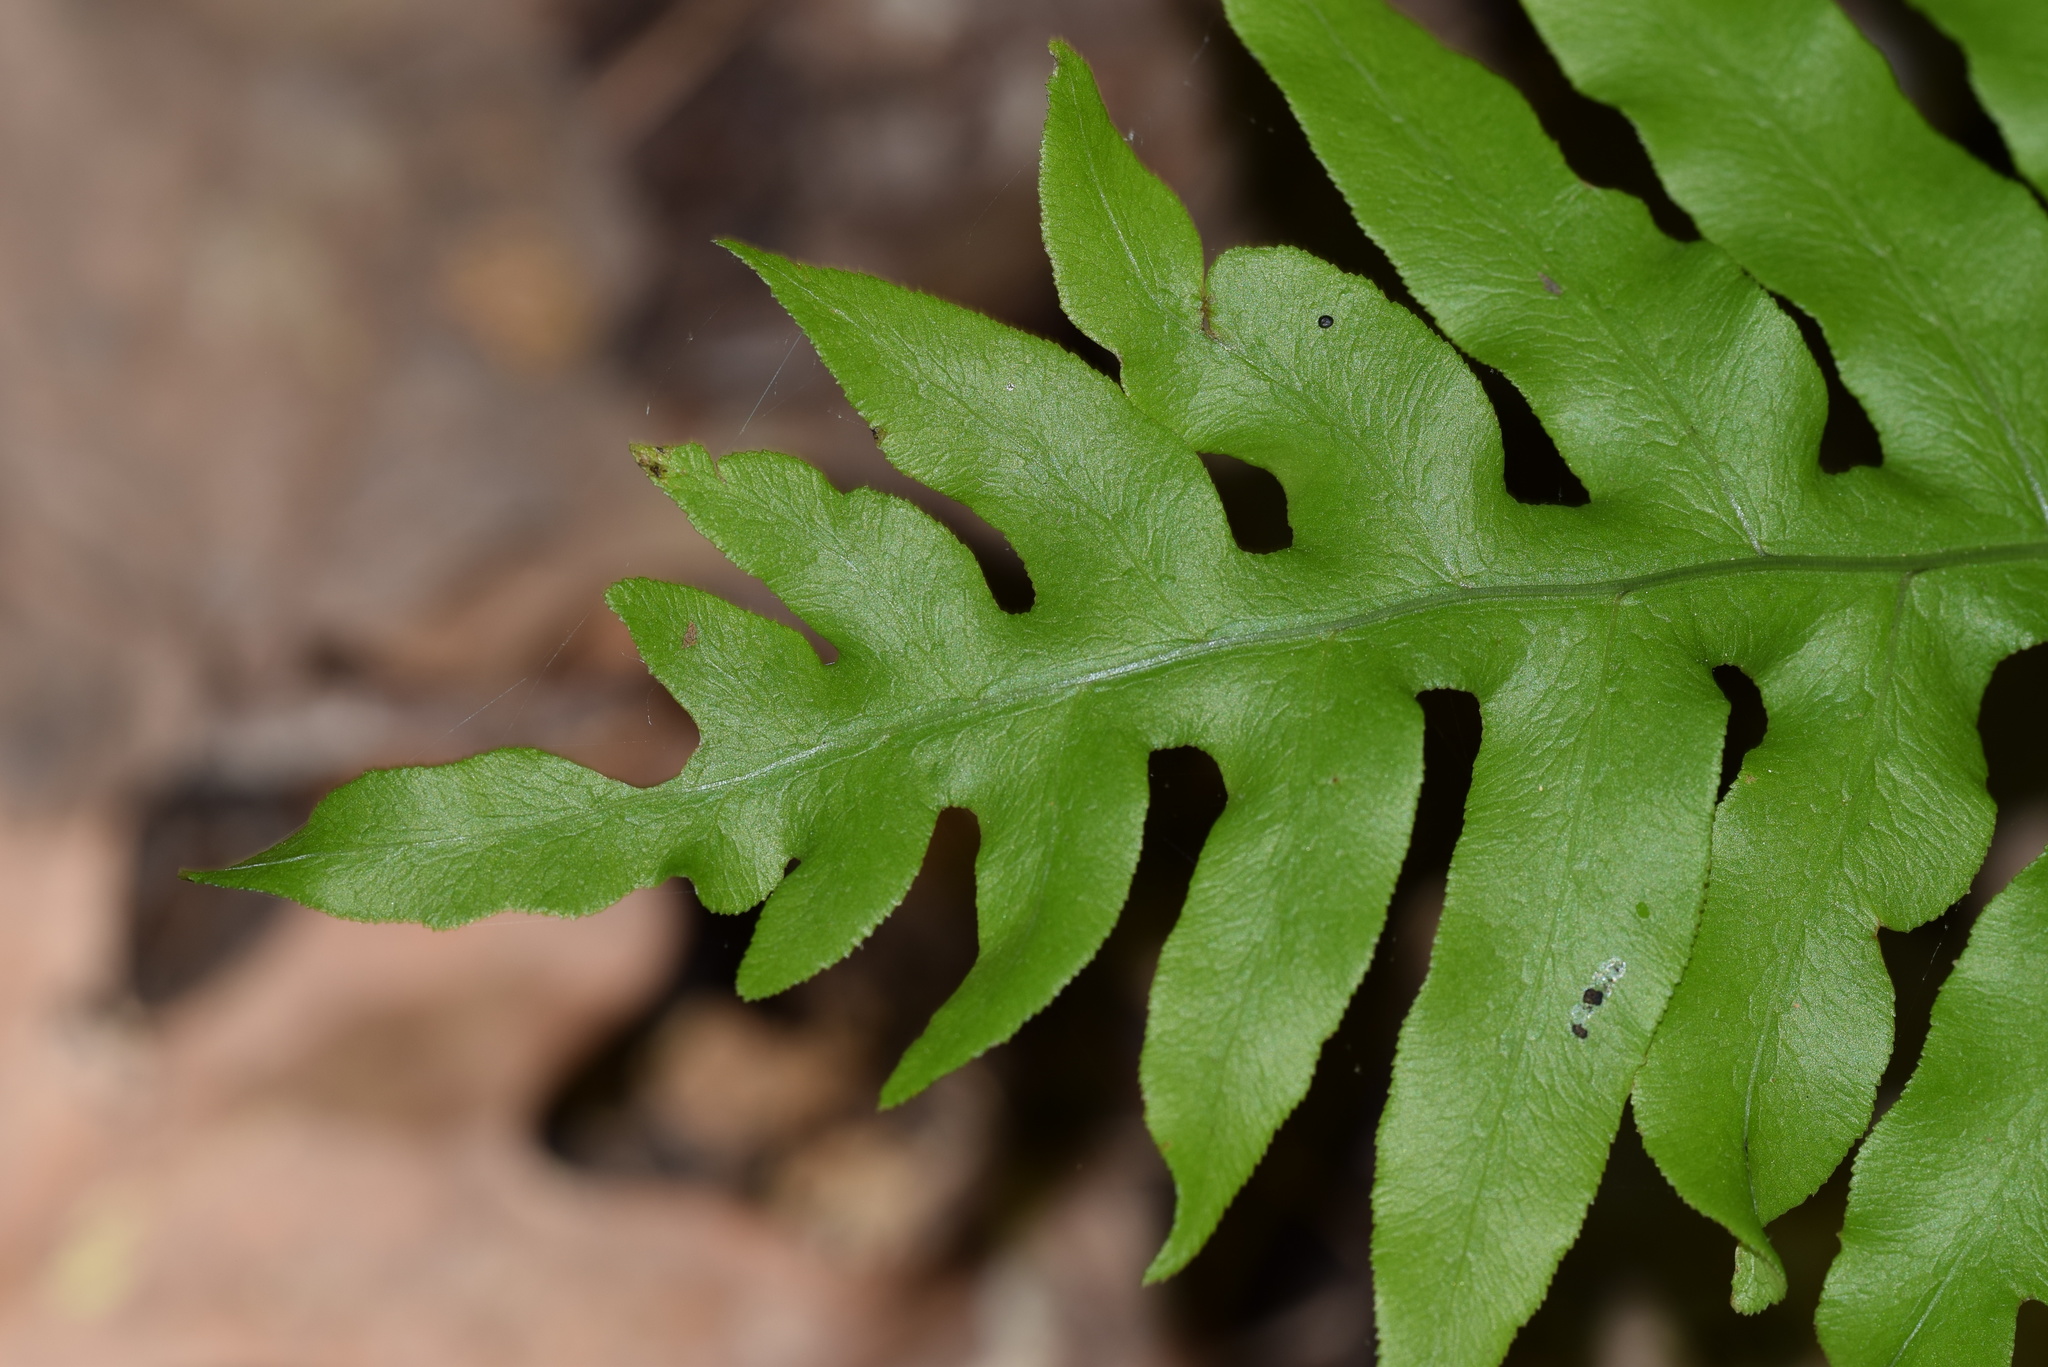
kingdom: Plantae
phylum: Tracheophyta
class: Polypodiopsida
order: Polypodiales
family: Blechnaceae
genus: Lorinseria
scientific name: Lorinseria areolata
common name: Dwarf chain fern
